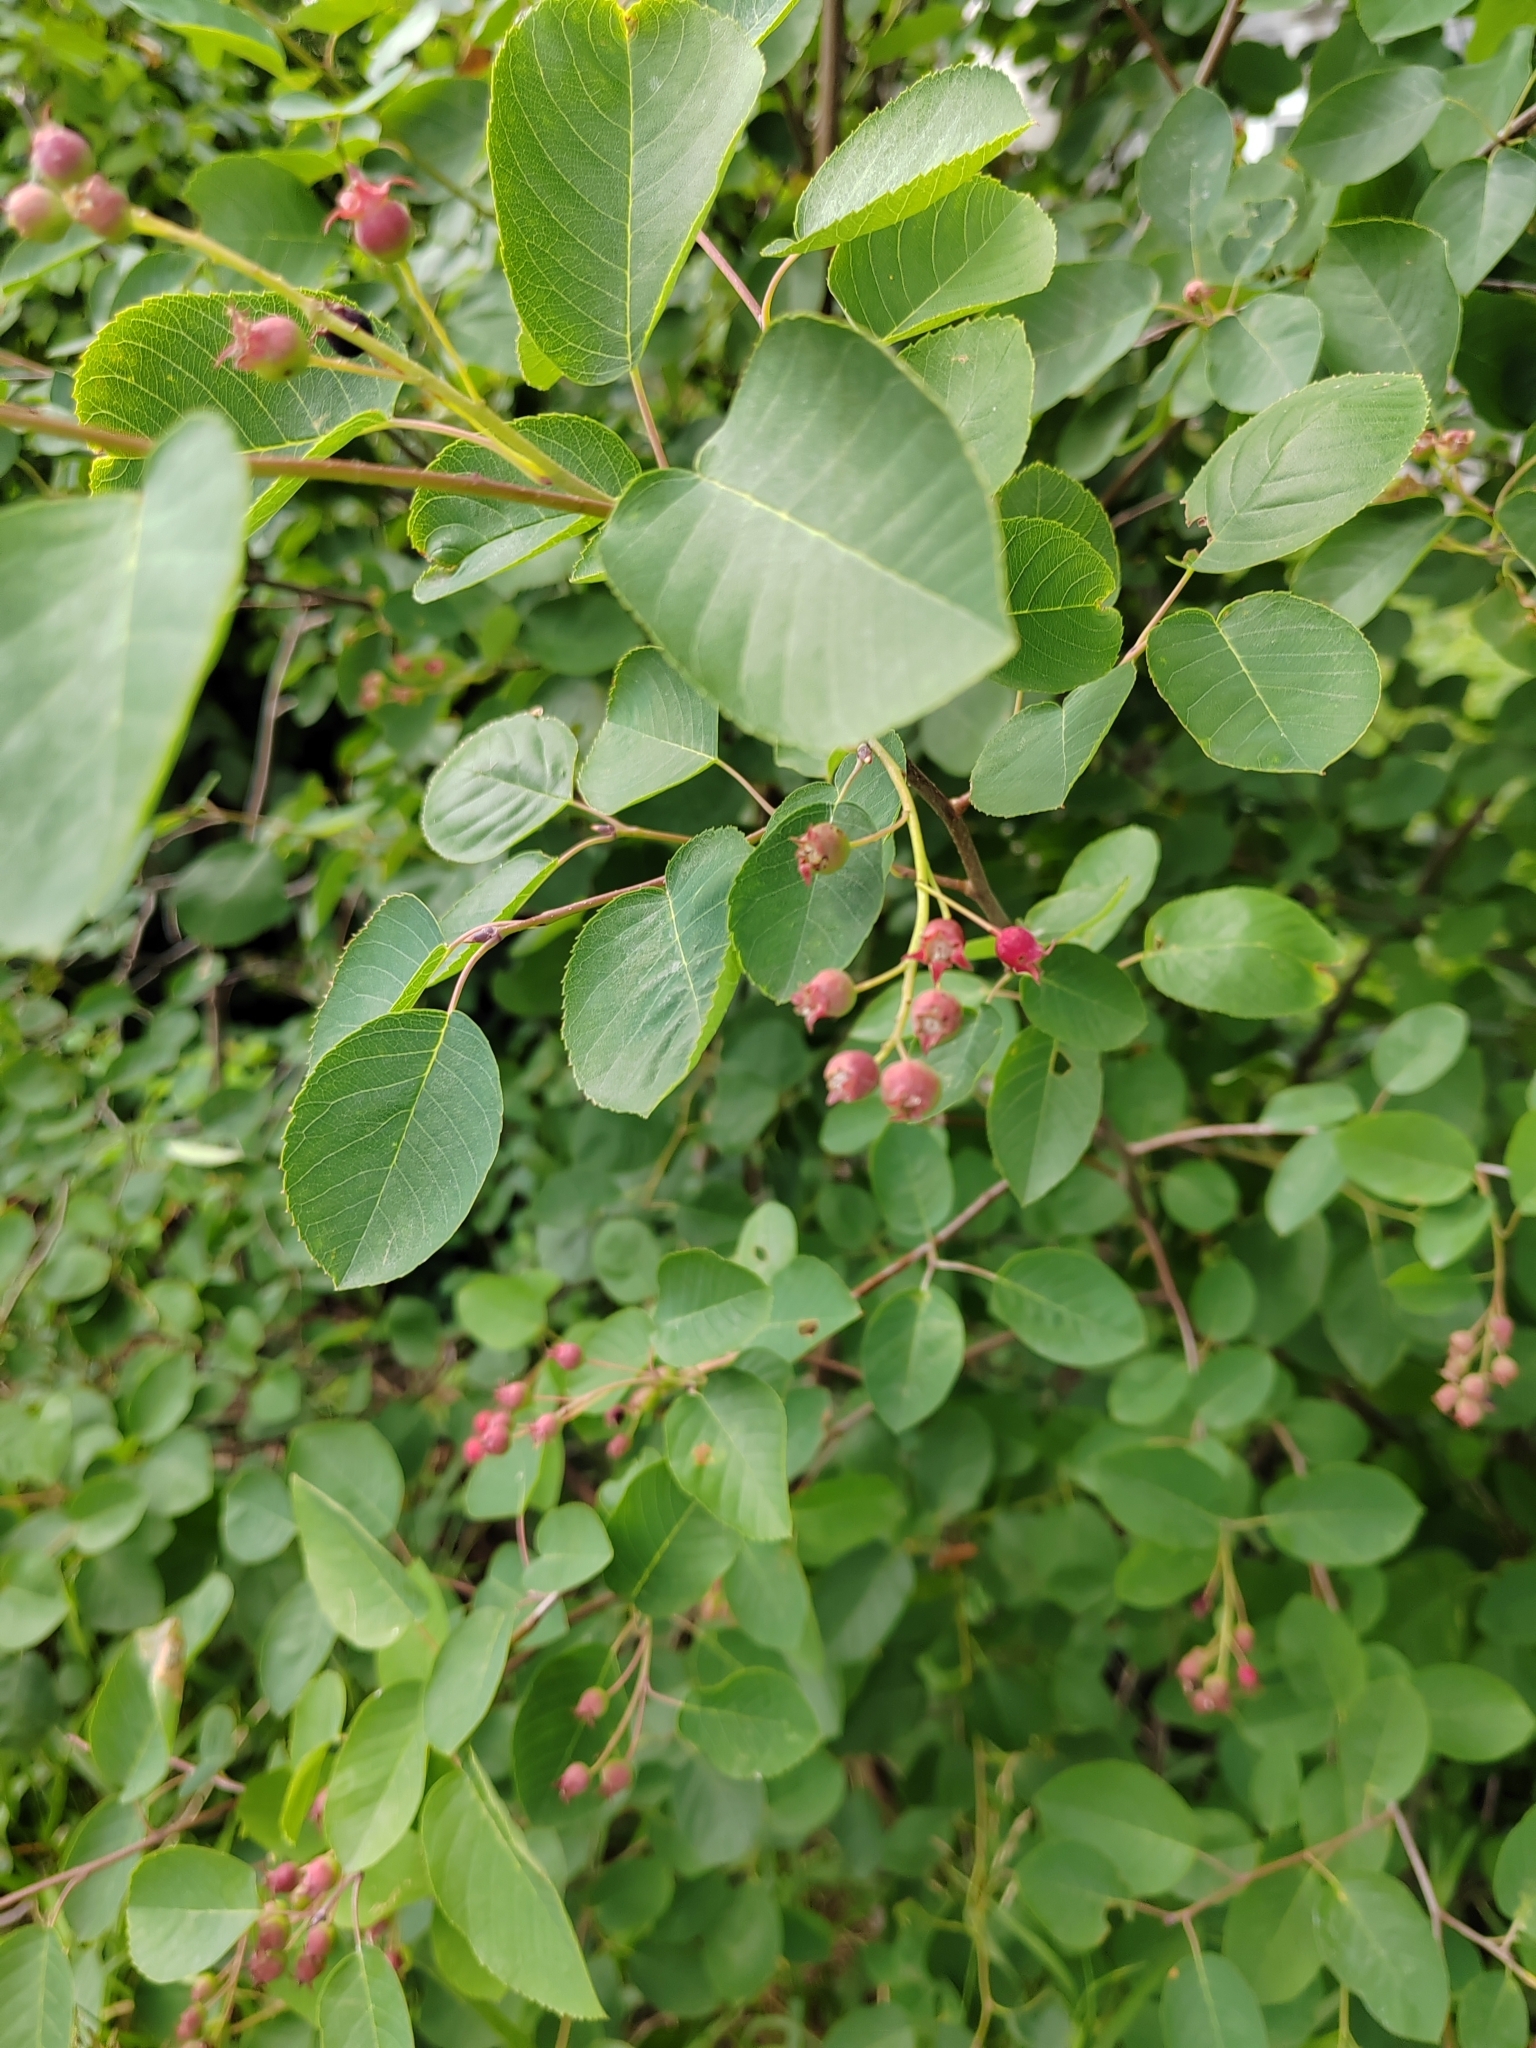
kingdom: Plantae
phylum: Tracheophyta
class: Magnoliopsida
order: Rosales
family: Rosaceae
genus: Amelanchier
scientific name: Amelanchier
